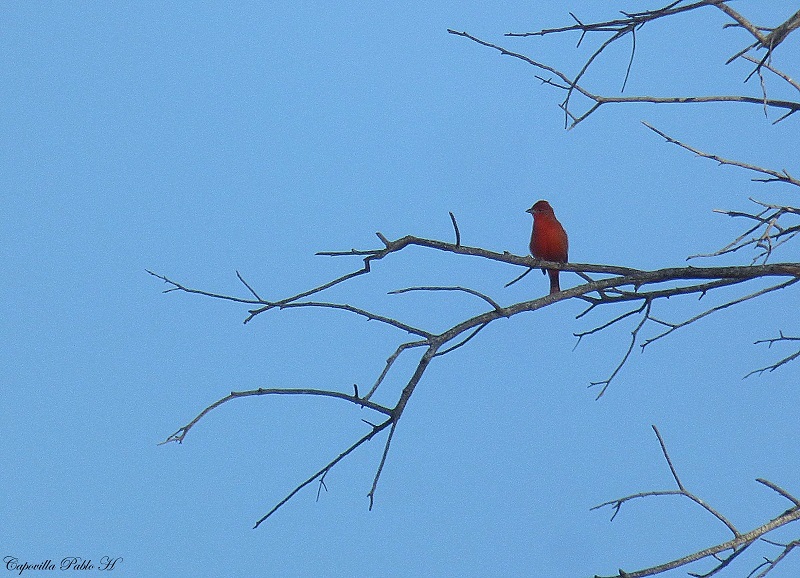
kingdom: Animalia
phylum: Chordata
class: Aves
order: Passeriformes
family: Cardinalidae
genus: Piranga
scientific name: Piranga flava
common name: Red tanager
